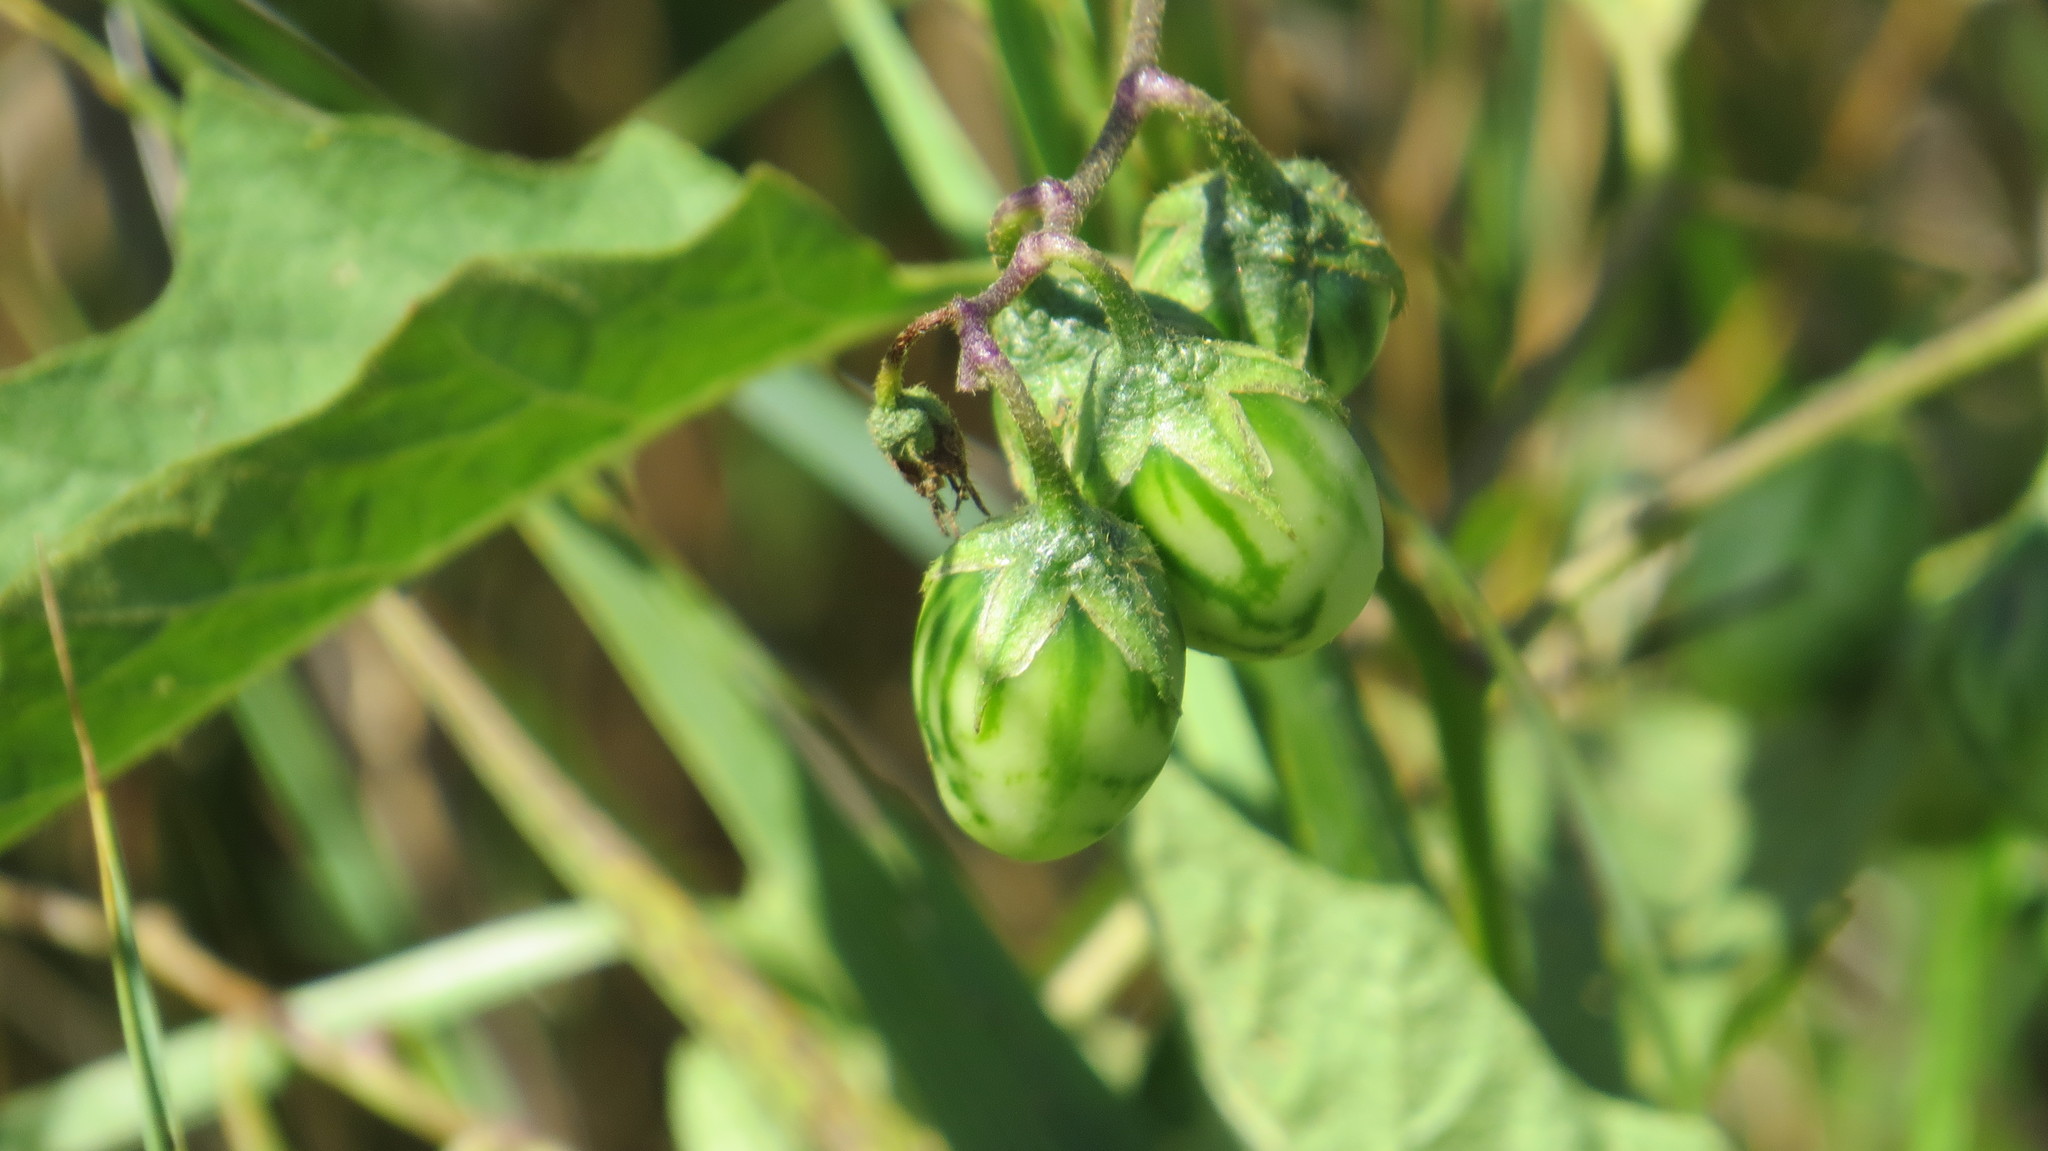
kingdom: Plantae
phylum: Tracheophyta
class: Magnoliopsida
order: Solanales
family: Solanaceae
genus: Solanum
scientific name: Solanum carolinense
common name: Horse-nettle
